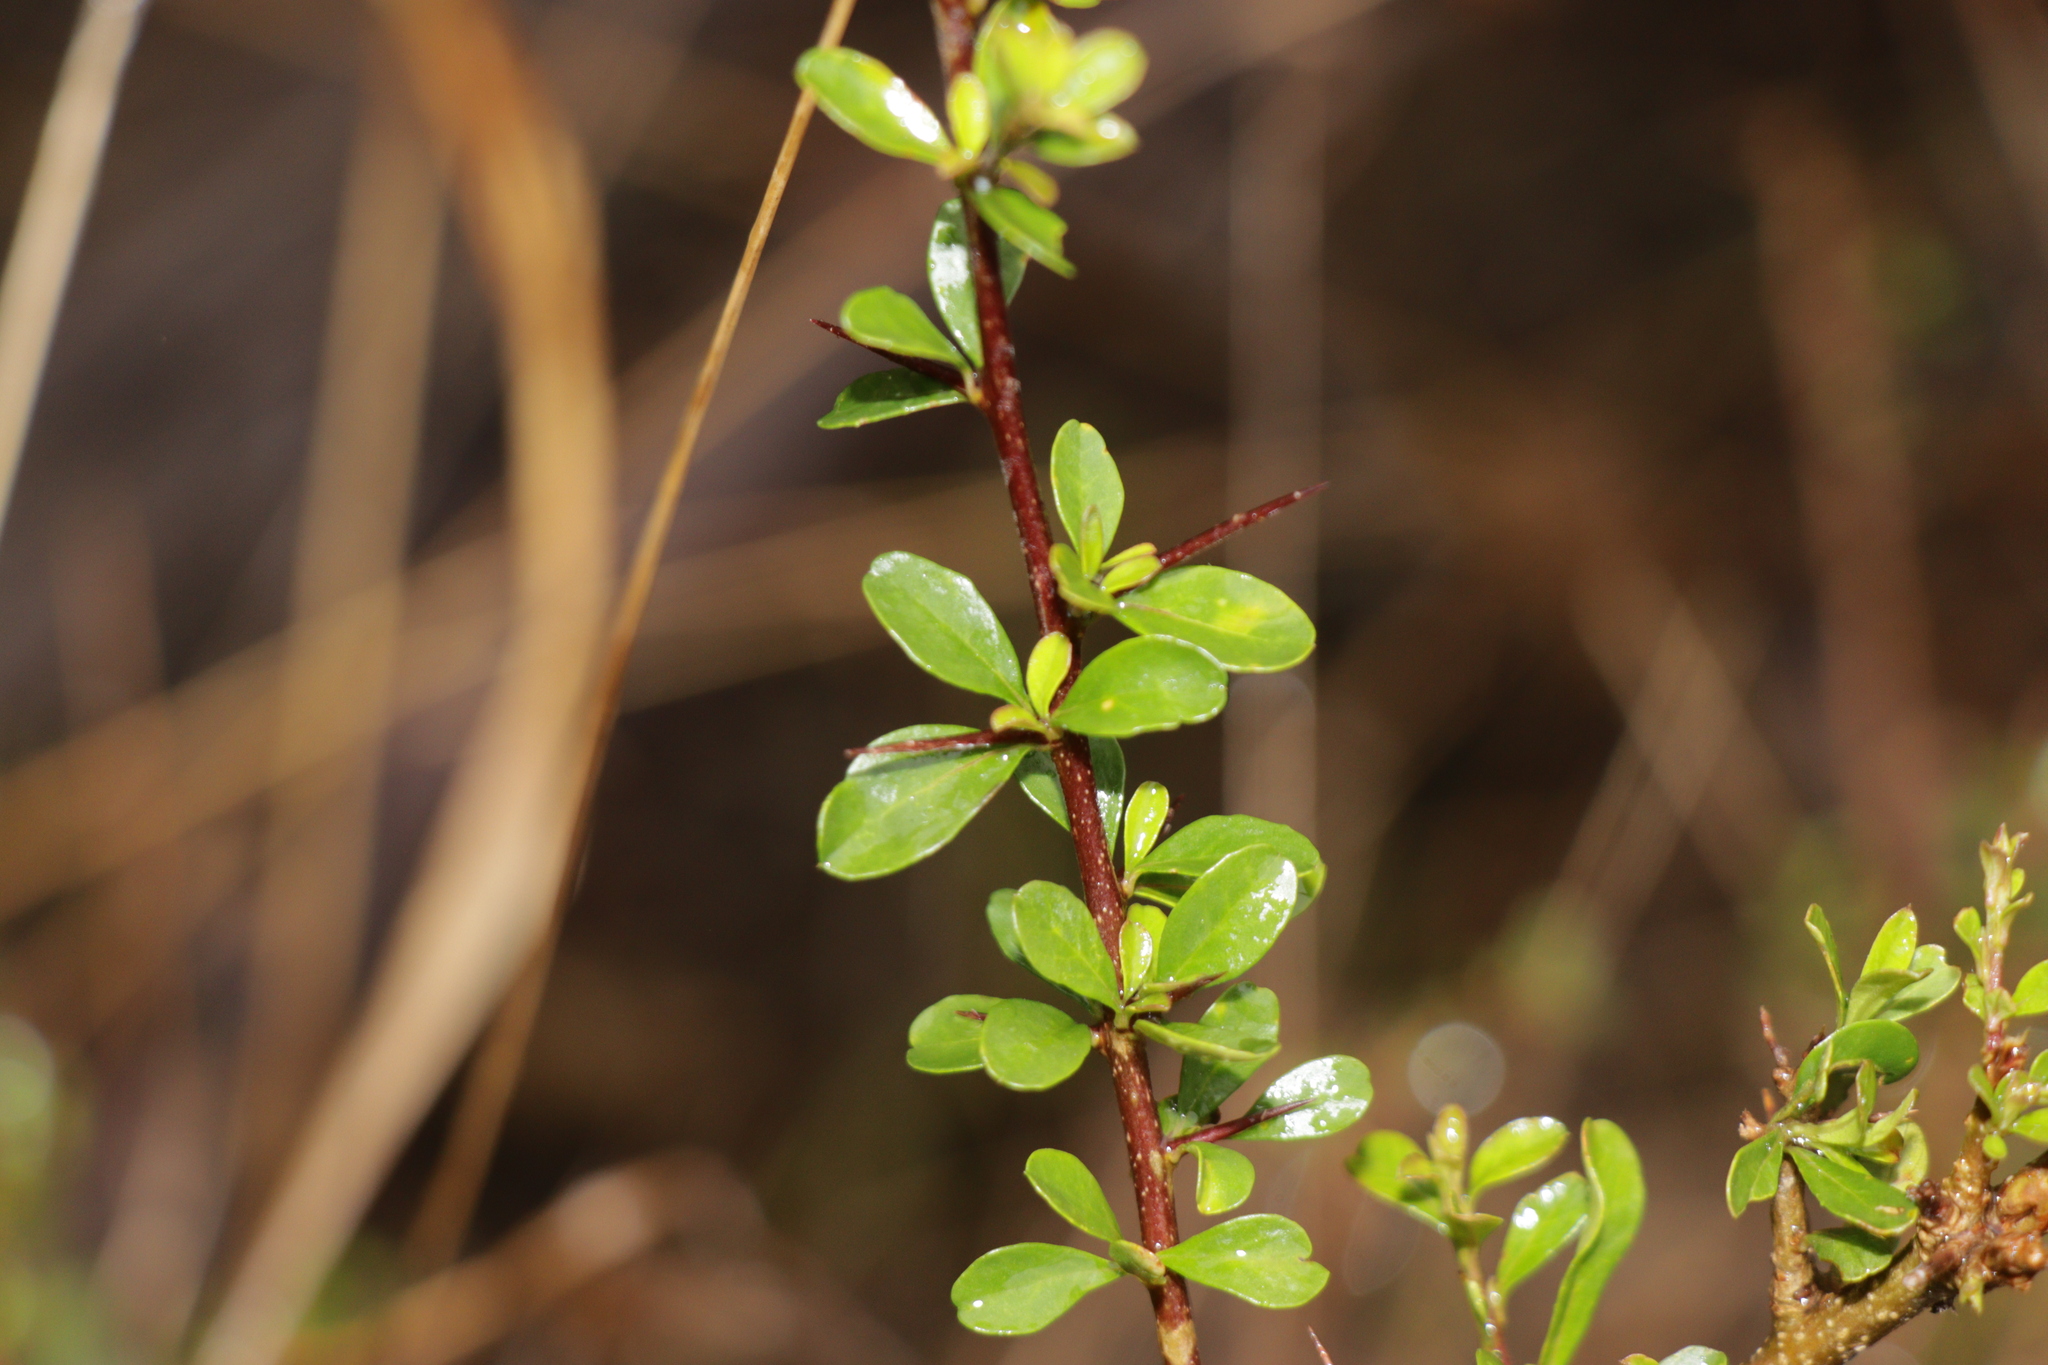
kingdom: Plantae
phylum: Tracheophyta
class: Magnoliopsida
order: Apiales
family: Pittosporaceae
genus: Bursaria
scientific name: Bursaria spinosa
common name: Australian blackthorn
